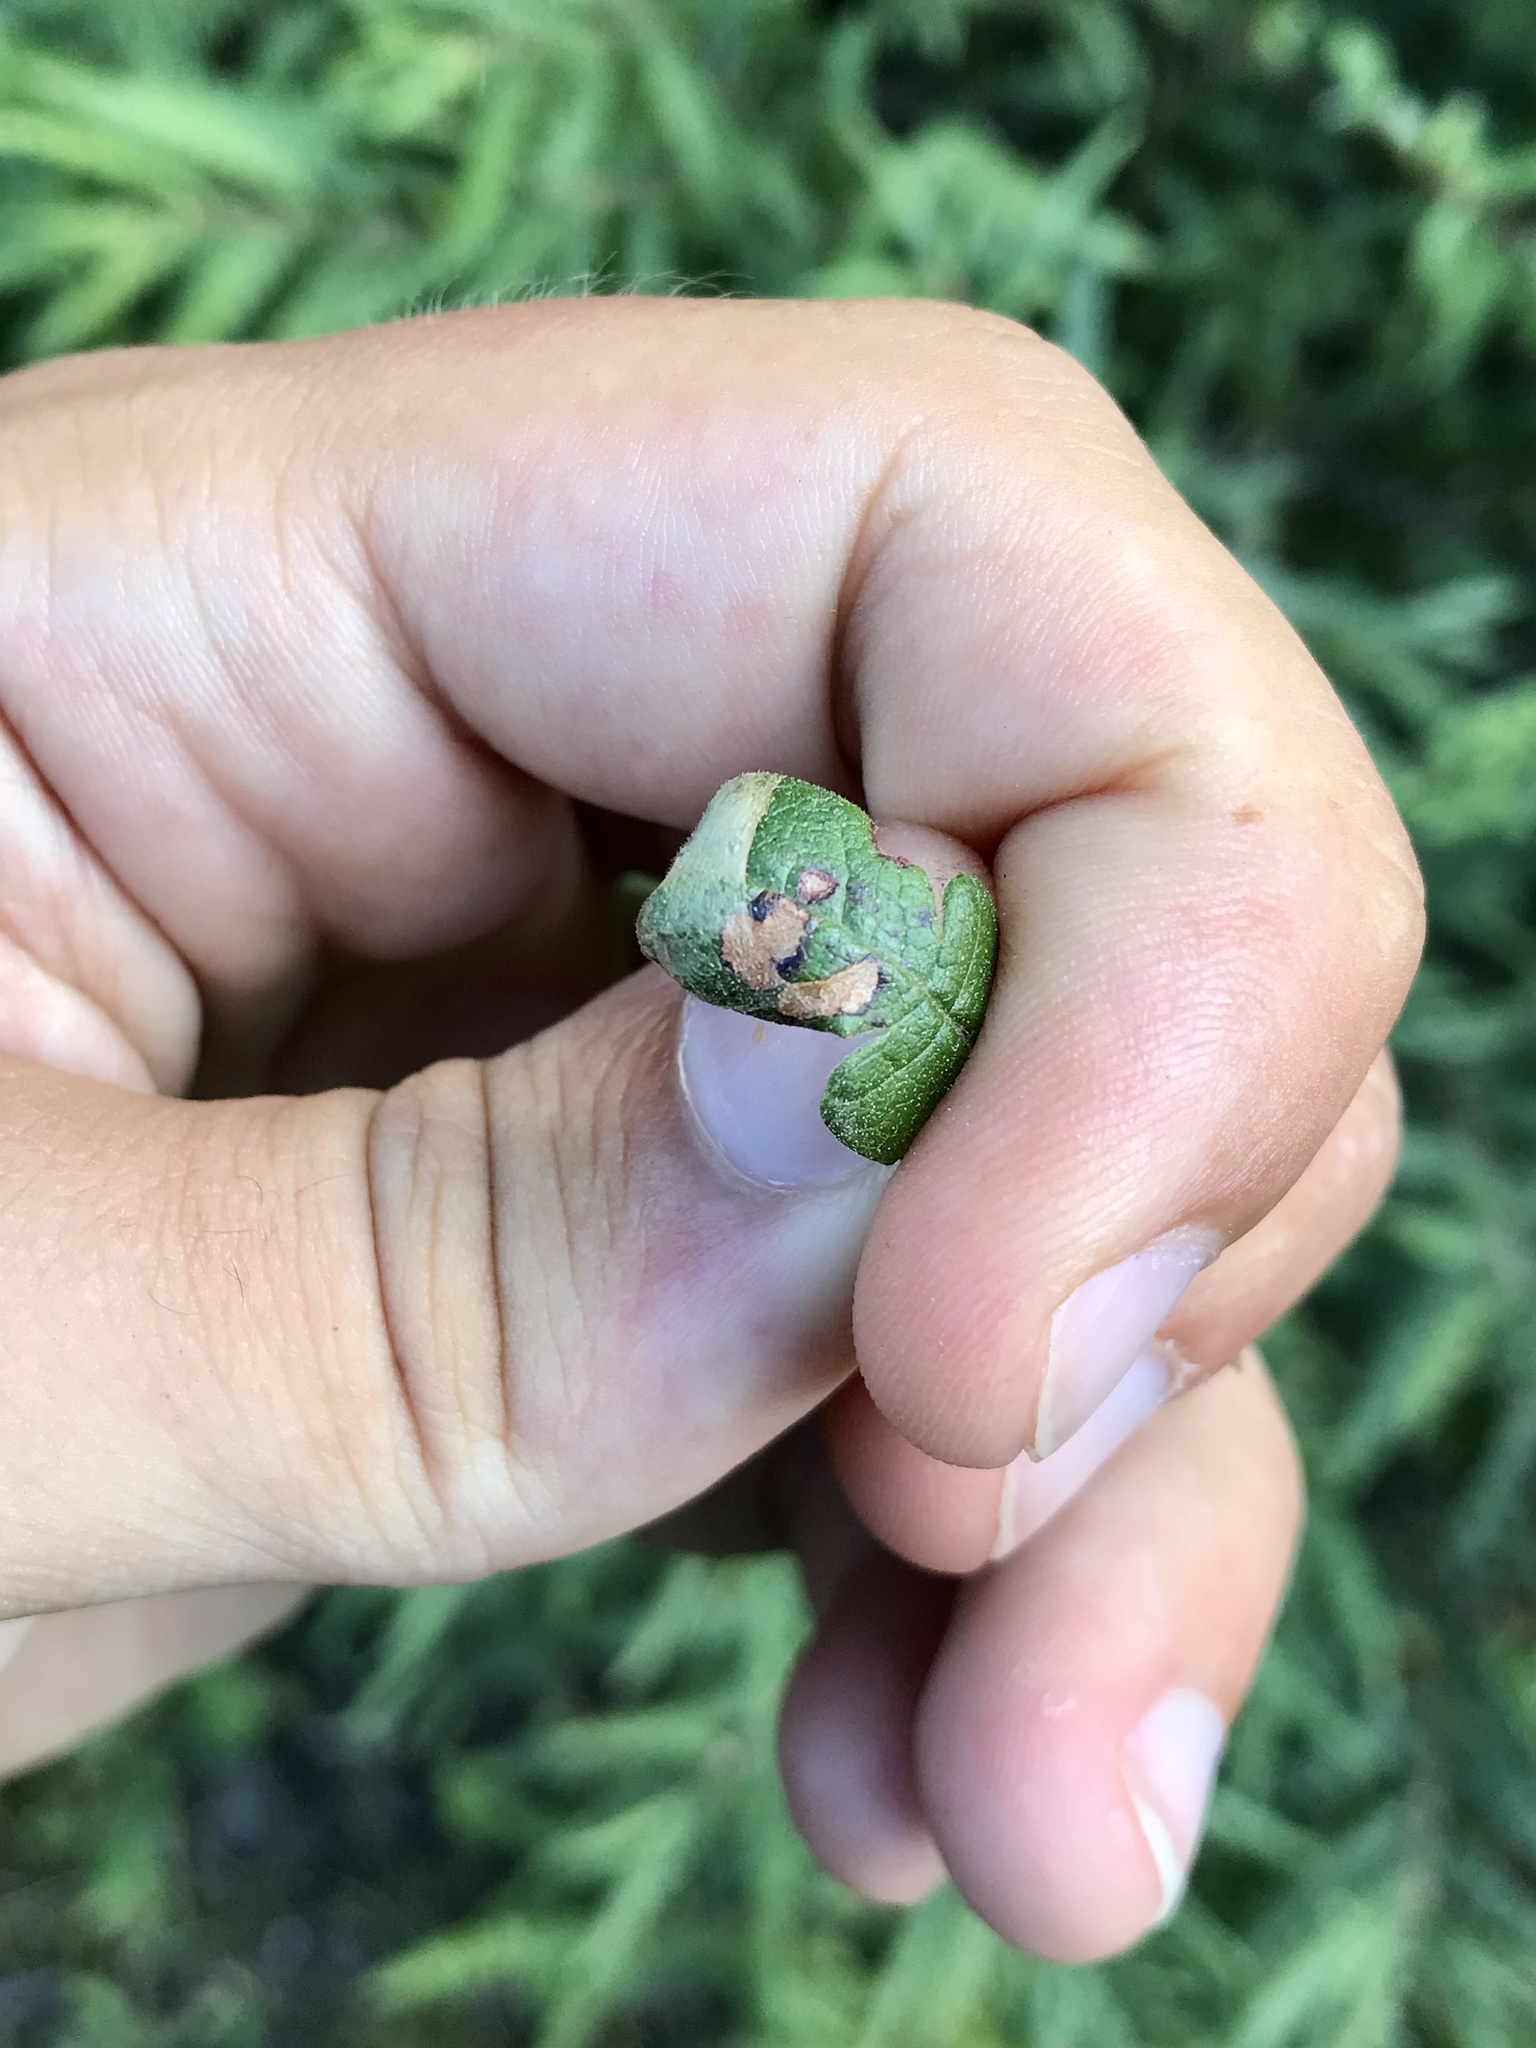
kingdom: Animalia
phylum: Arthropoda
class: Insecta
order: Lepidoptera
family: Gracillariidae
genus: Caloptilia
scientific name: Caloptilia asplenifoliatella
